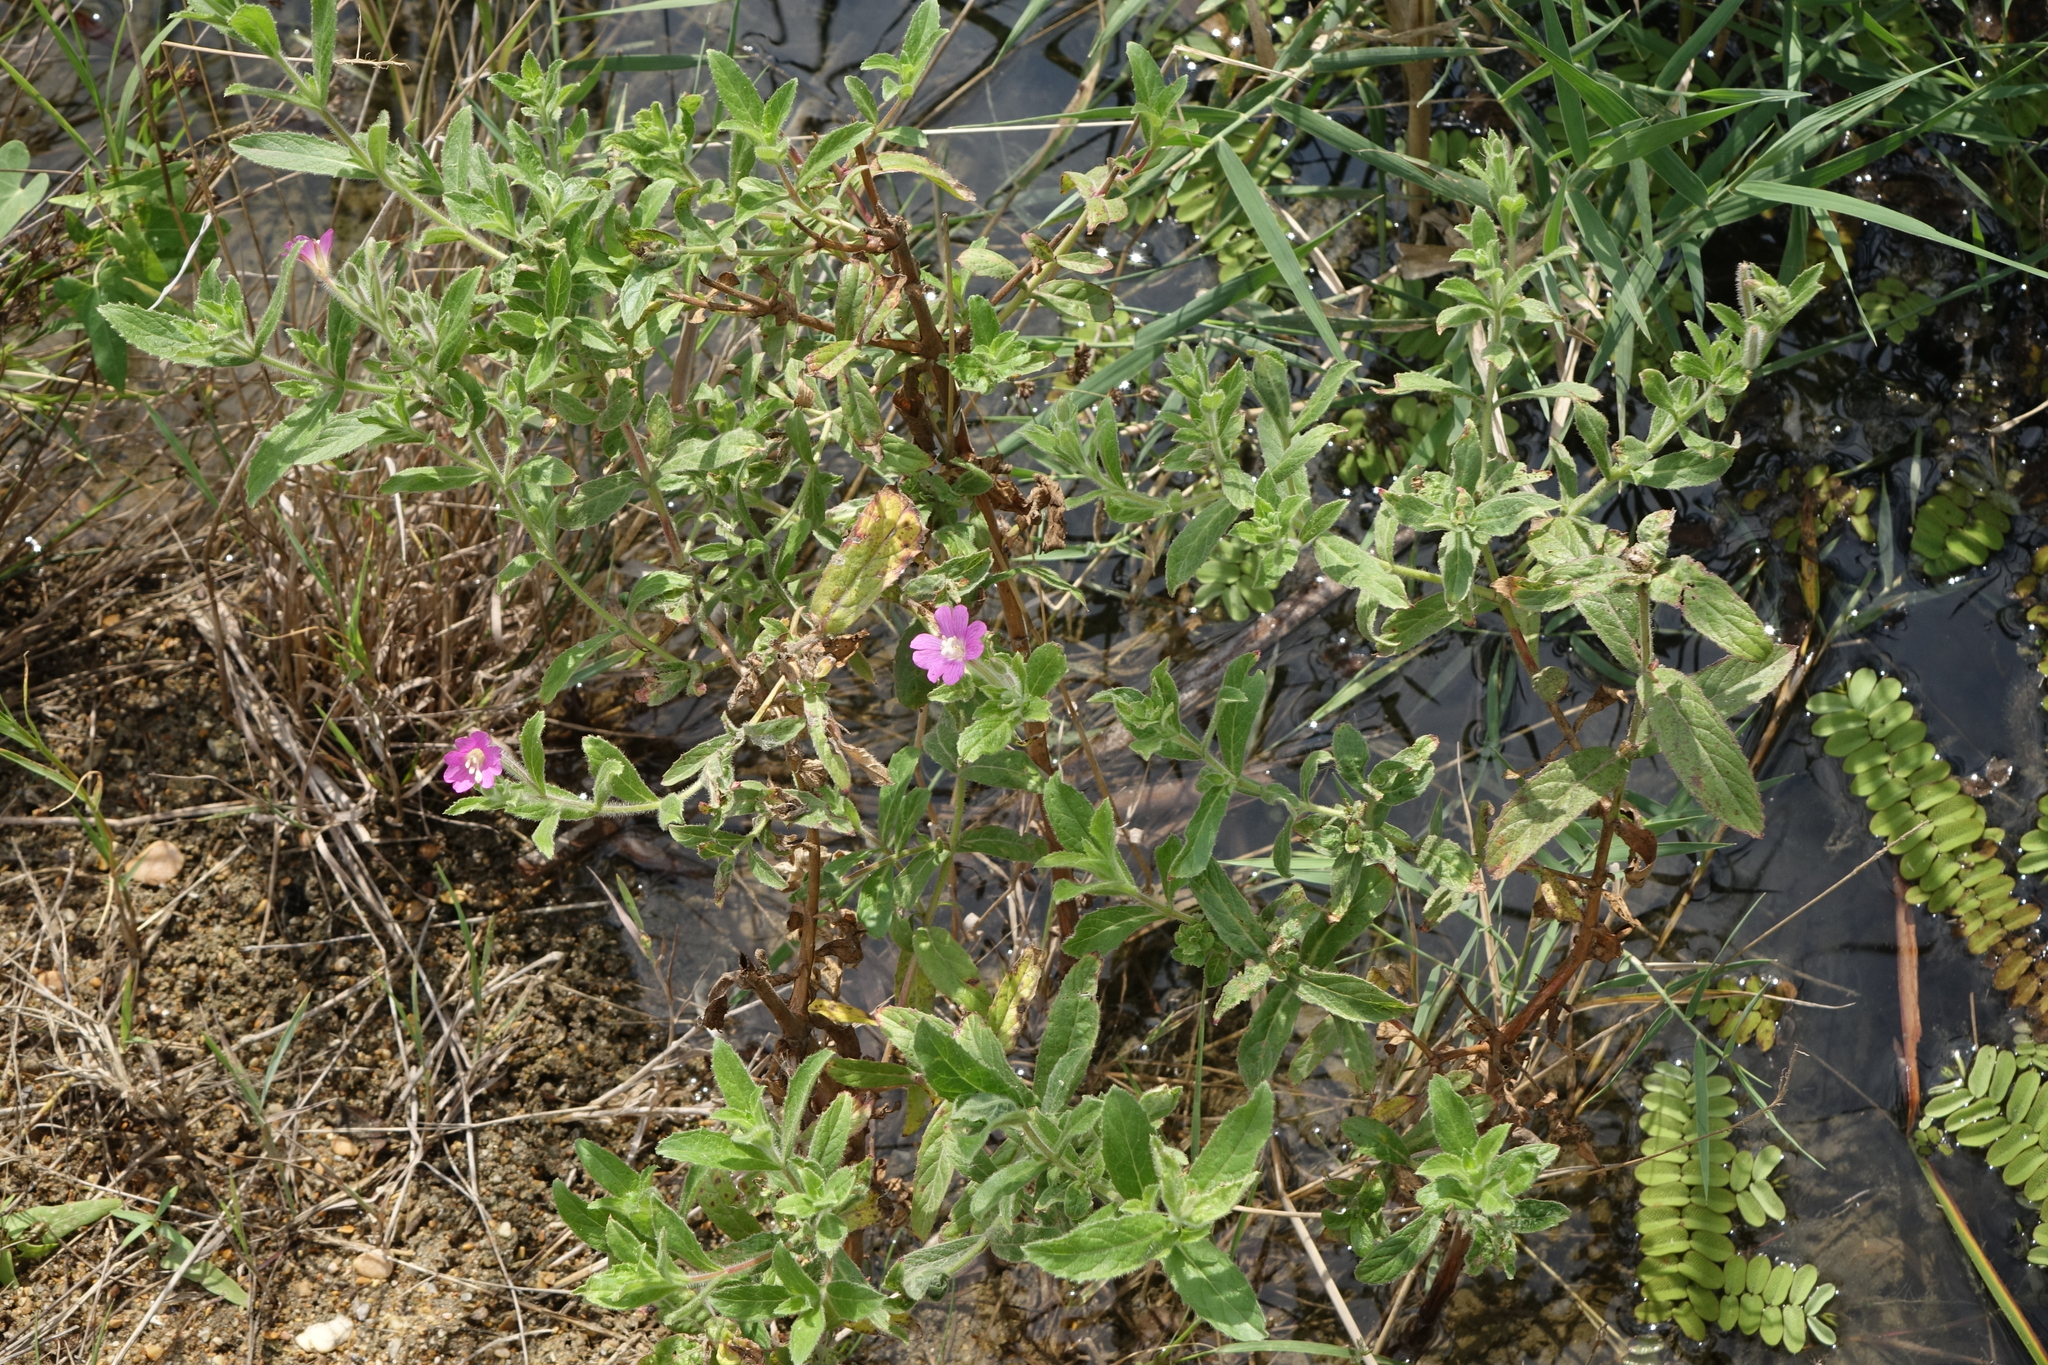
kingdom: Plantae
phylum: Tracheophyta
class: Magnoliopsida
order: Myrtales
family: Onagraceae
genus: Epilobium
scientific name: Epilobium hirsutum
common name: Great willowherb
